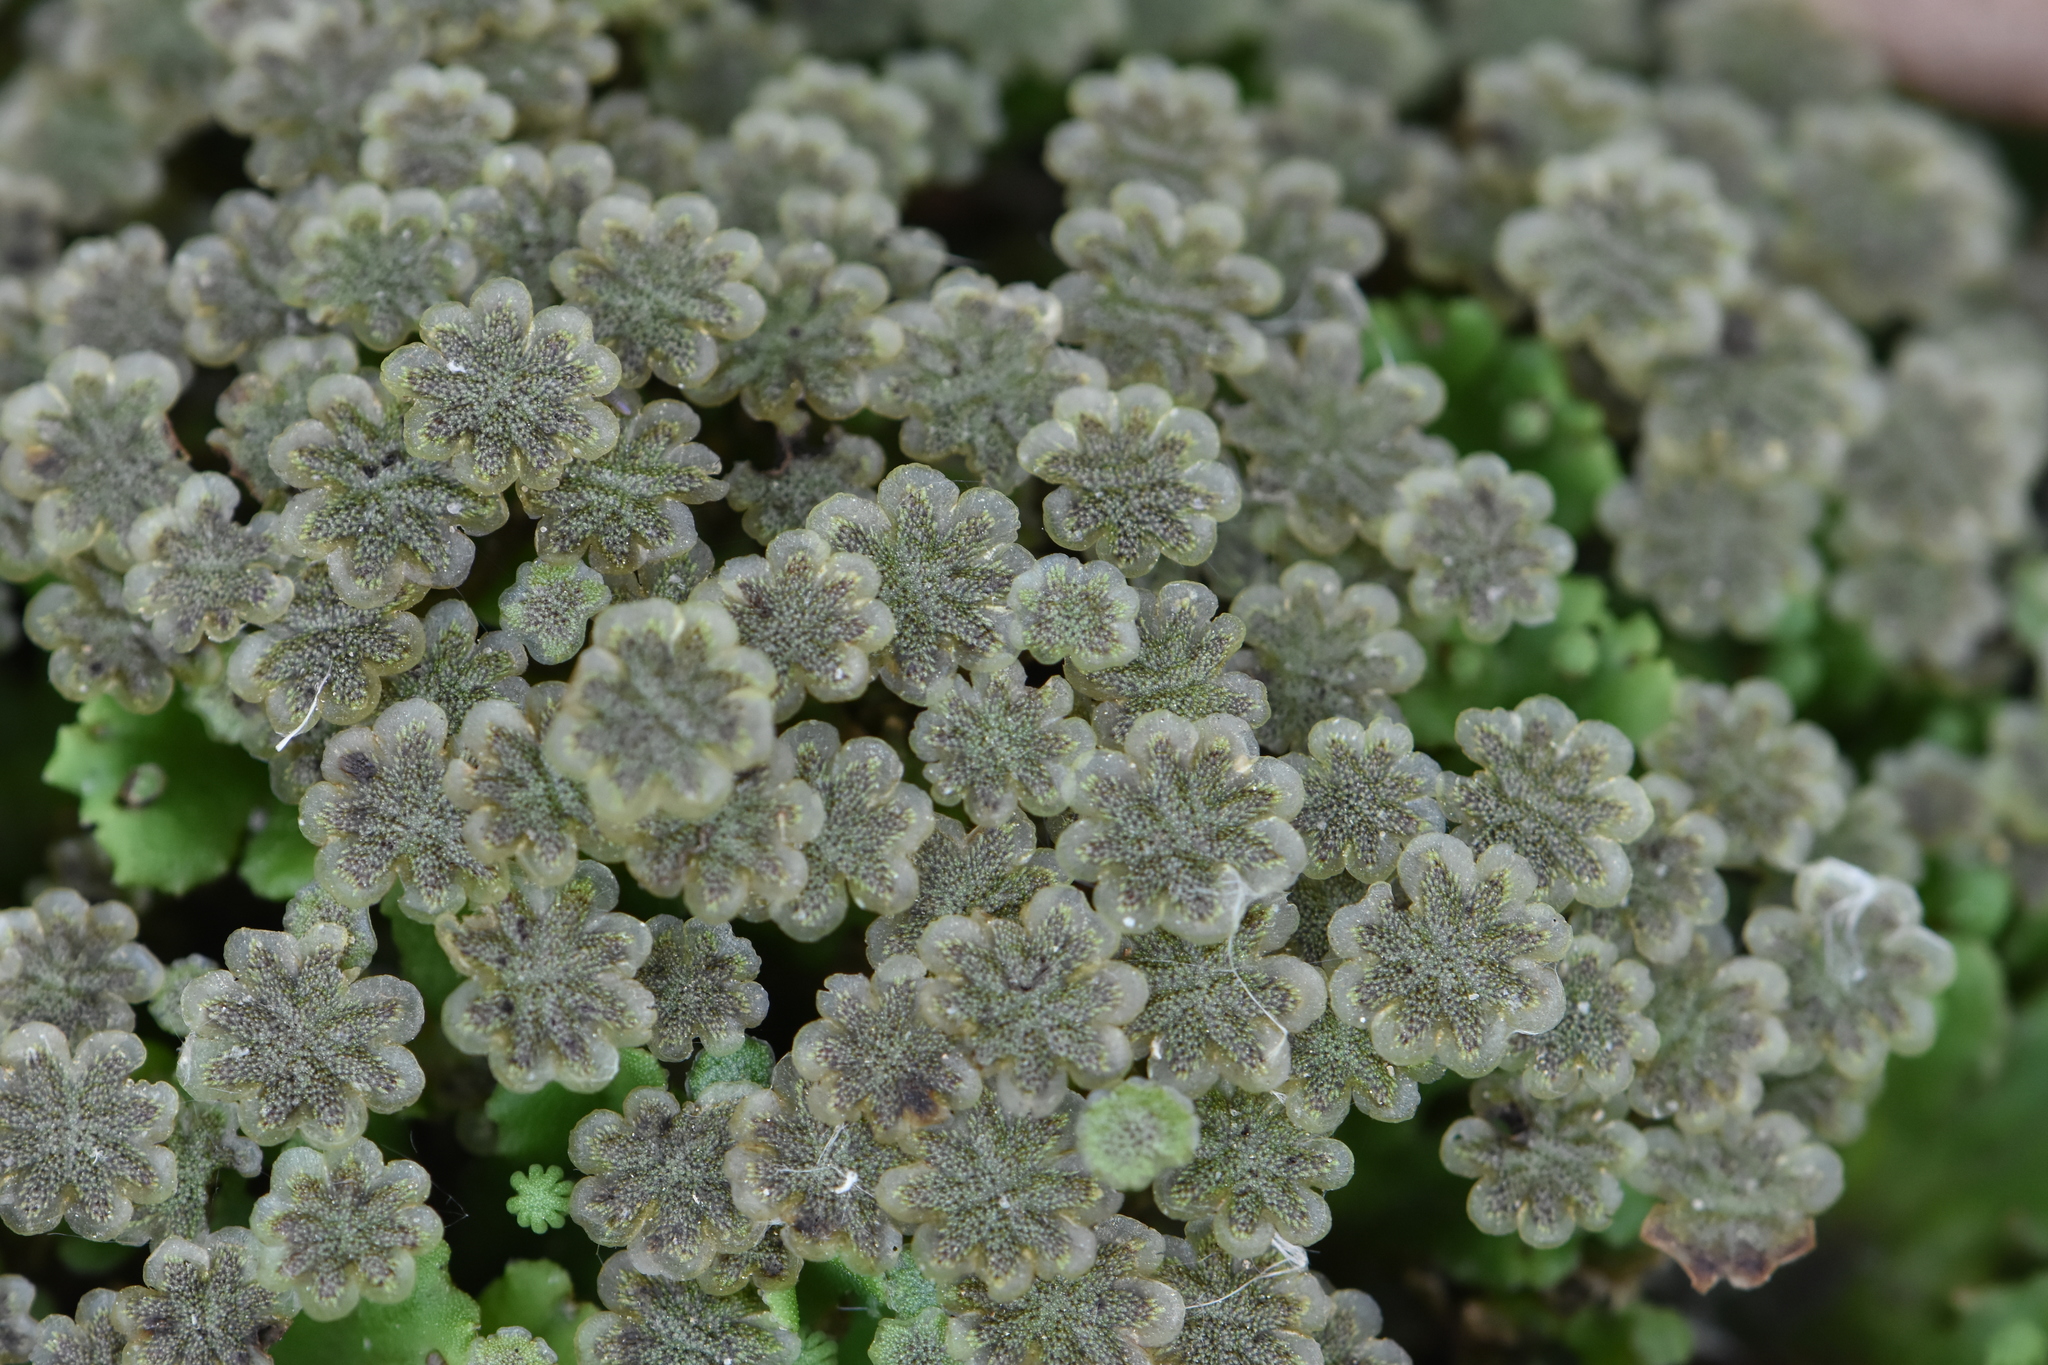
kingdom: Plantae
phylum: Marchantiophyta
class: Marchantiopsida
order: Marchantiales
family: Marchantiaceae
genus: Marchantia
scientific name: Marchantia polymorpha
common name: Common liverwort
